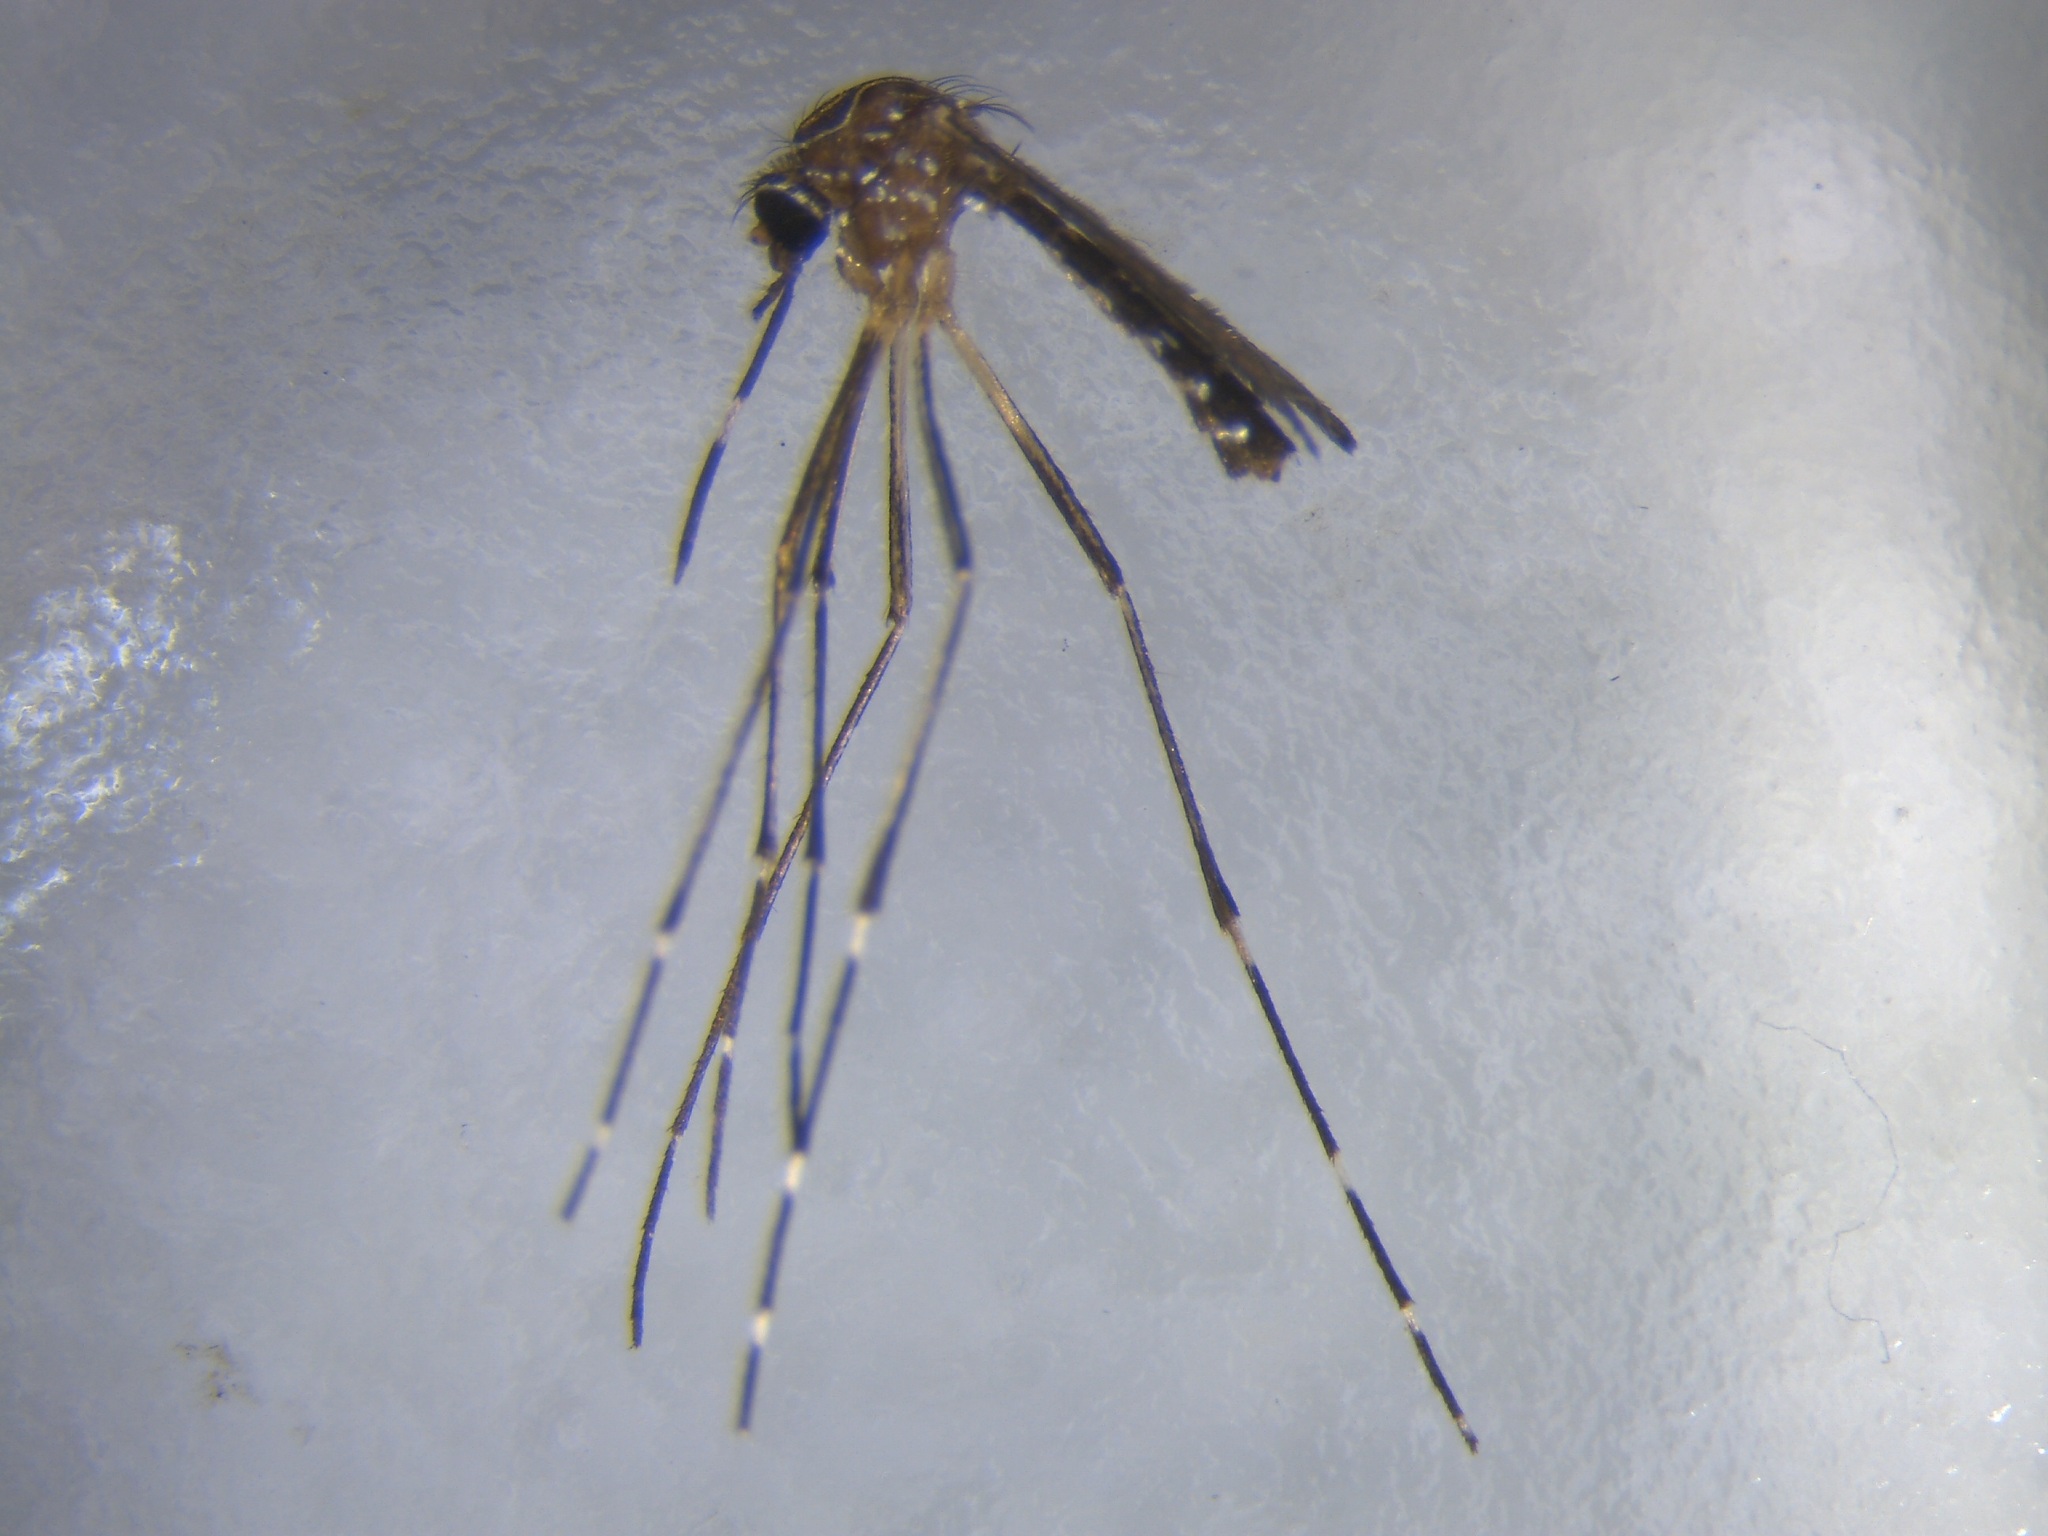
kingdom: Animalia
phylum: Arthropoda
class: Insecta
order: Diptera
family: Culicidae
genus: Aedes
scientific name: Aedes notoscriptus
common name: Australian backyard mosquito
